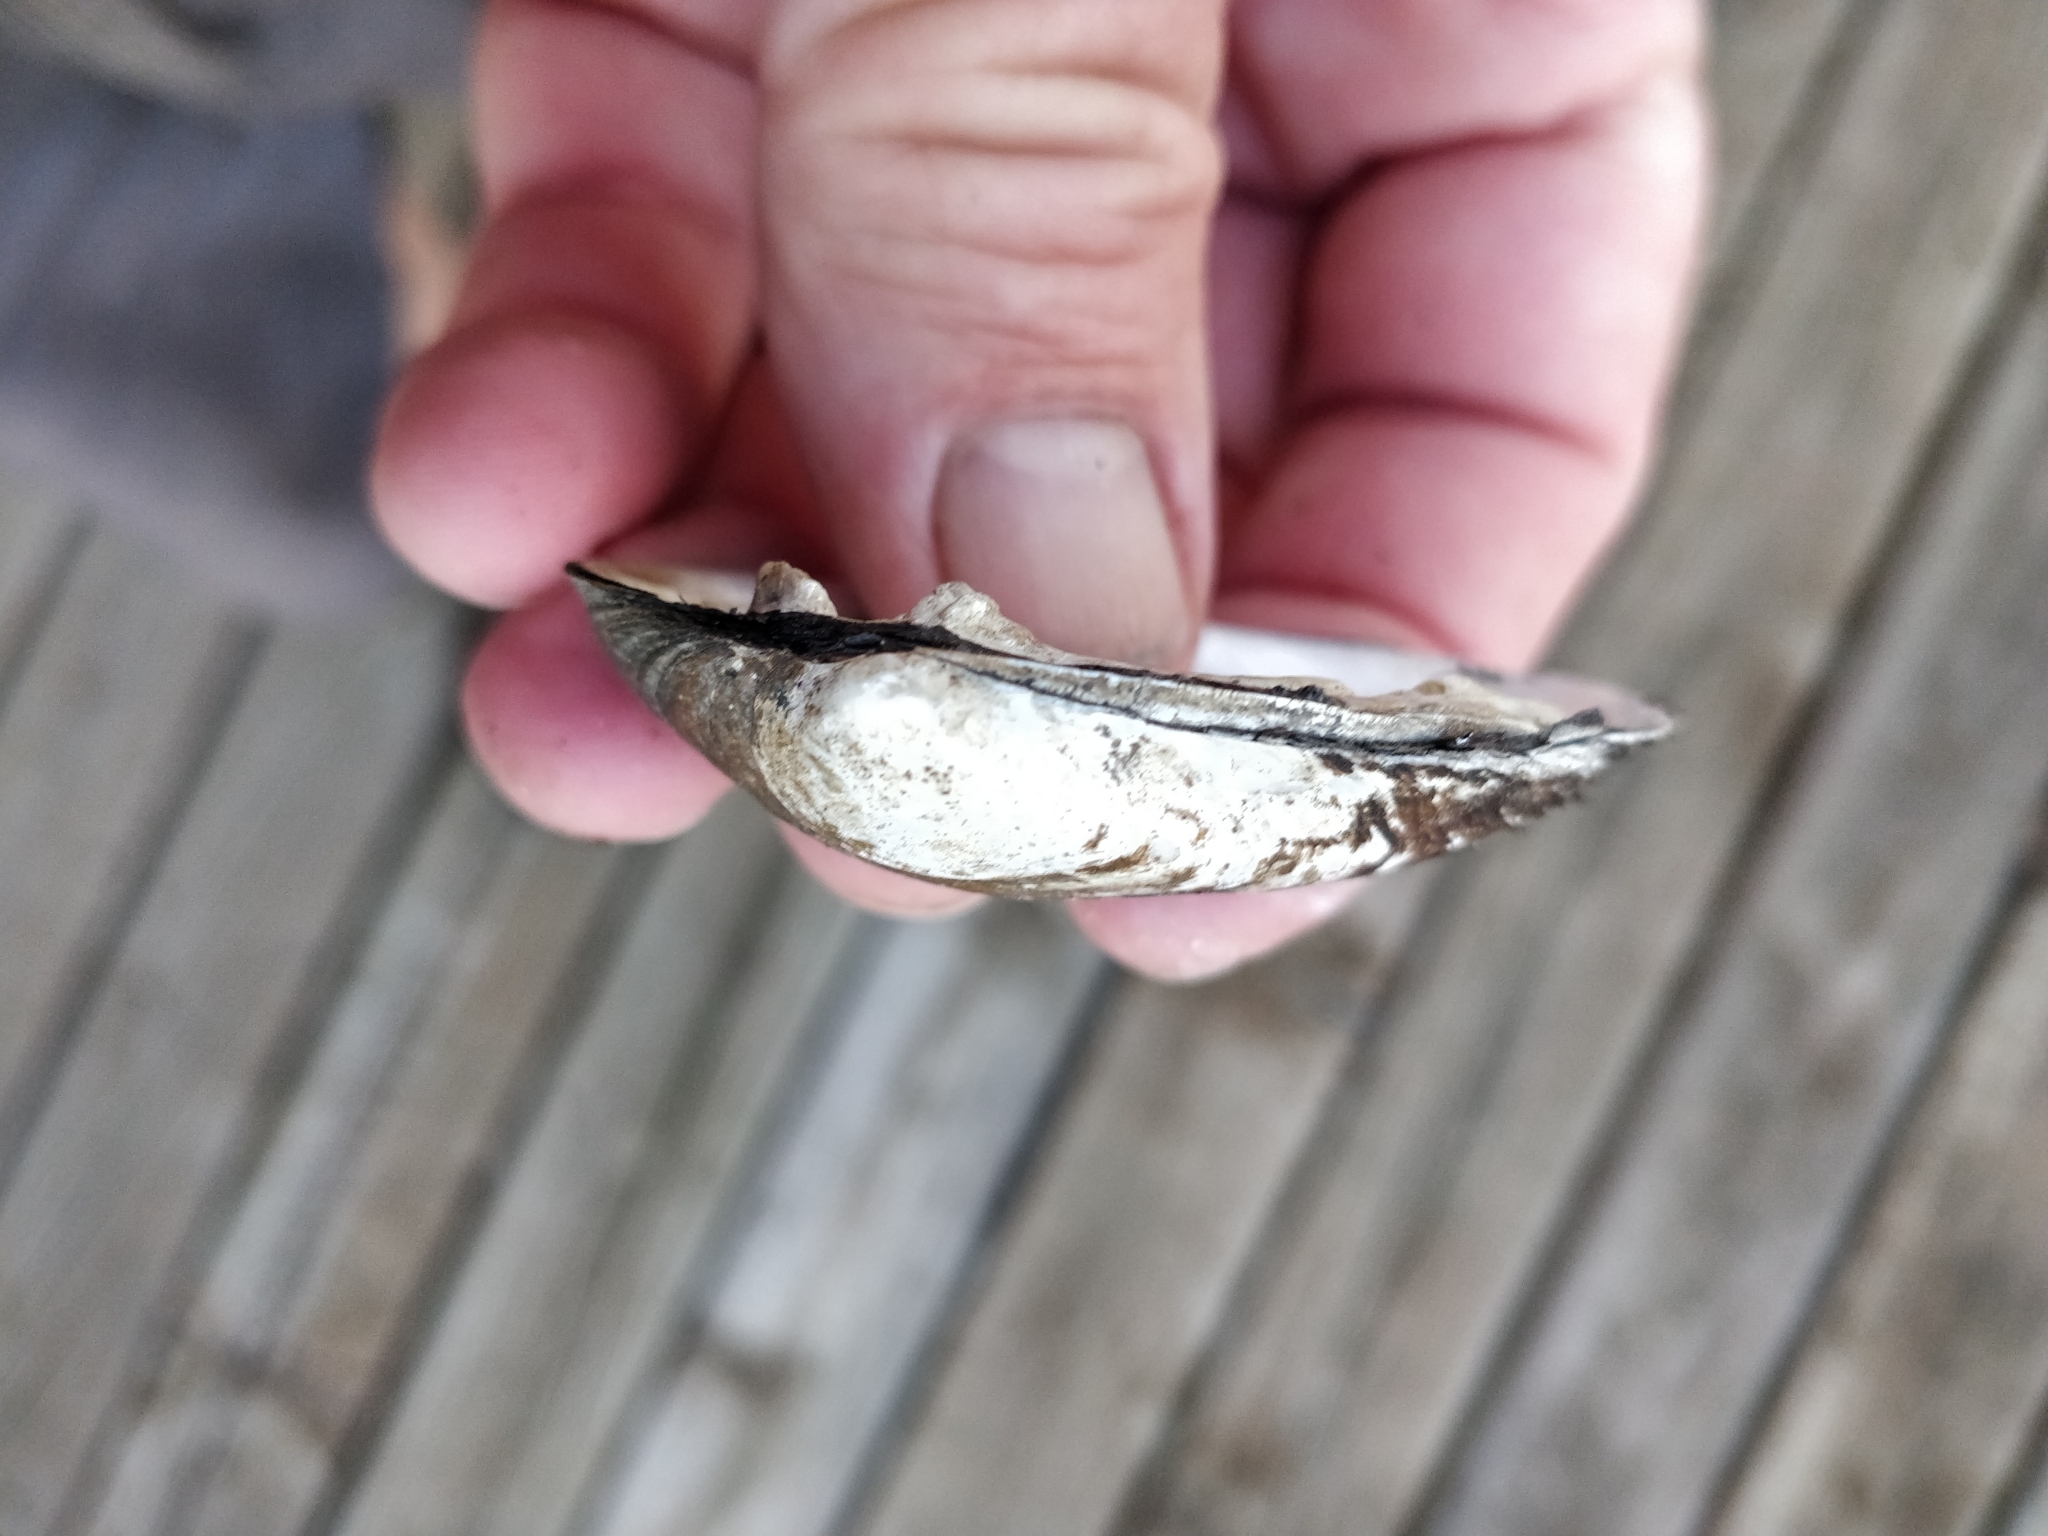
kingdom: Animalia
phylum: Mollusca
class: Bivalvia
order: Unionida
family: Unionidae
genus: Fusconaia
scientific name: Fusconaia flava
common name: Wabash pigtoe
